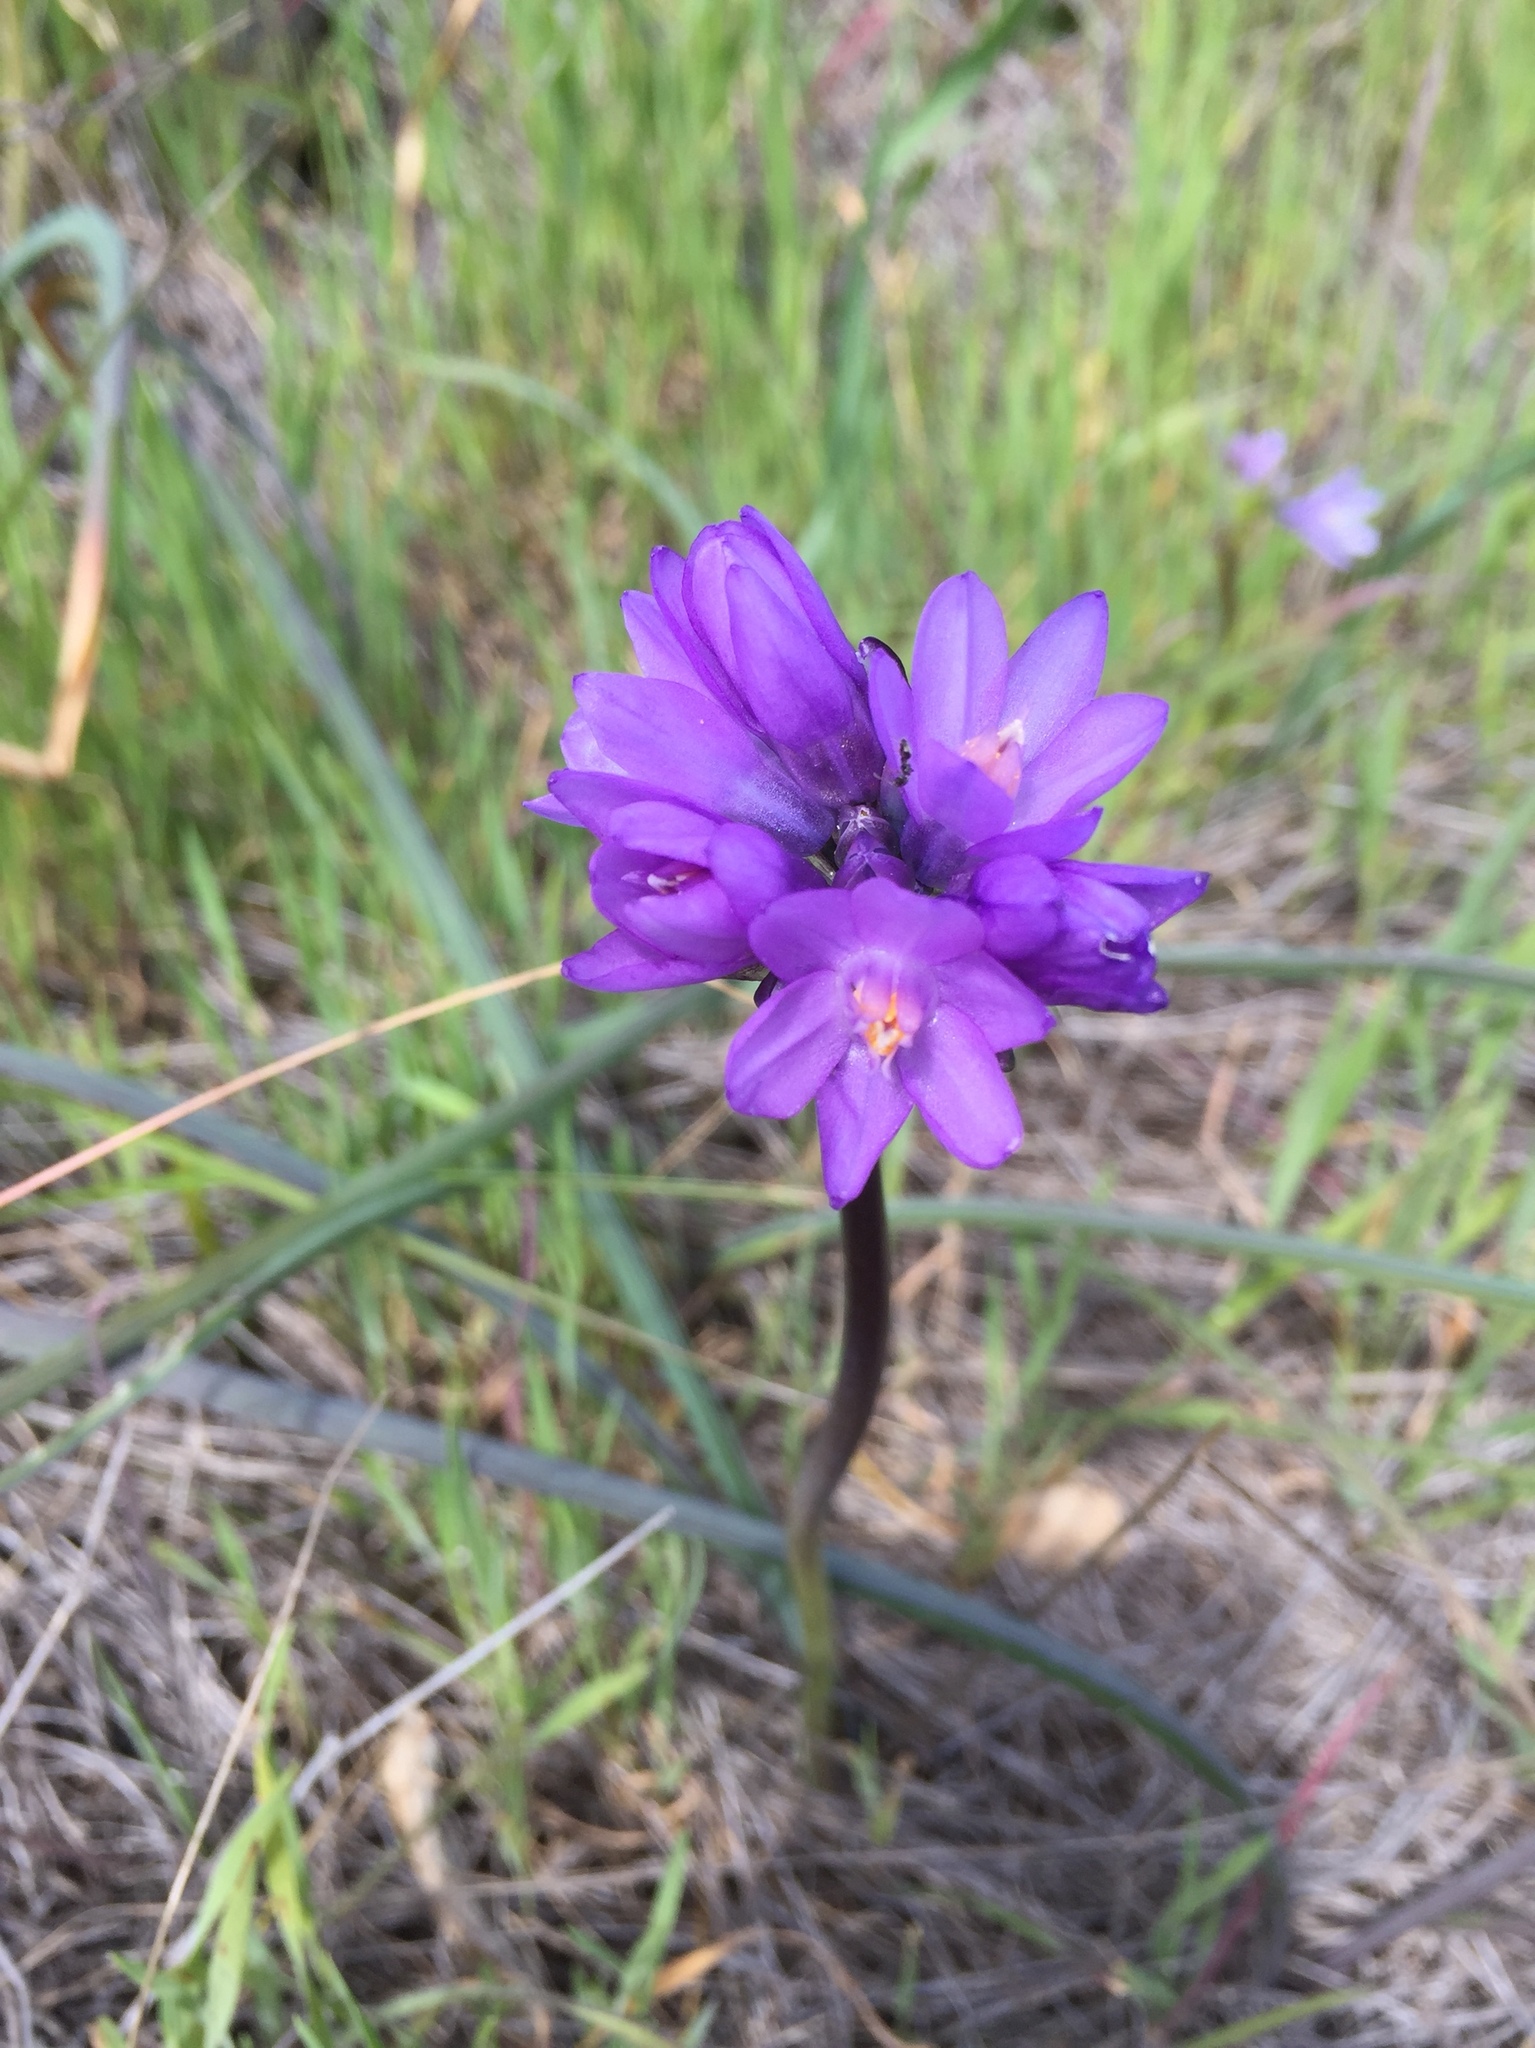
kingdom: Plantae
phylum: Tracheophyta
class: Liliopsida
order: Asparagales
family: Asparagaceae
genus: Dipterostemon
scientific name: Dipterostemon capitatus
